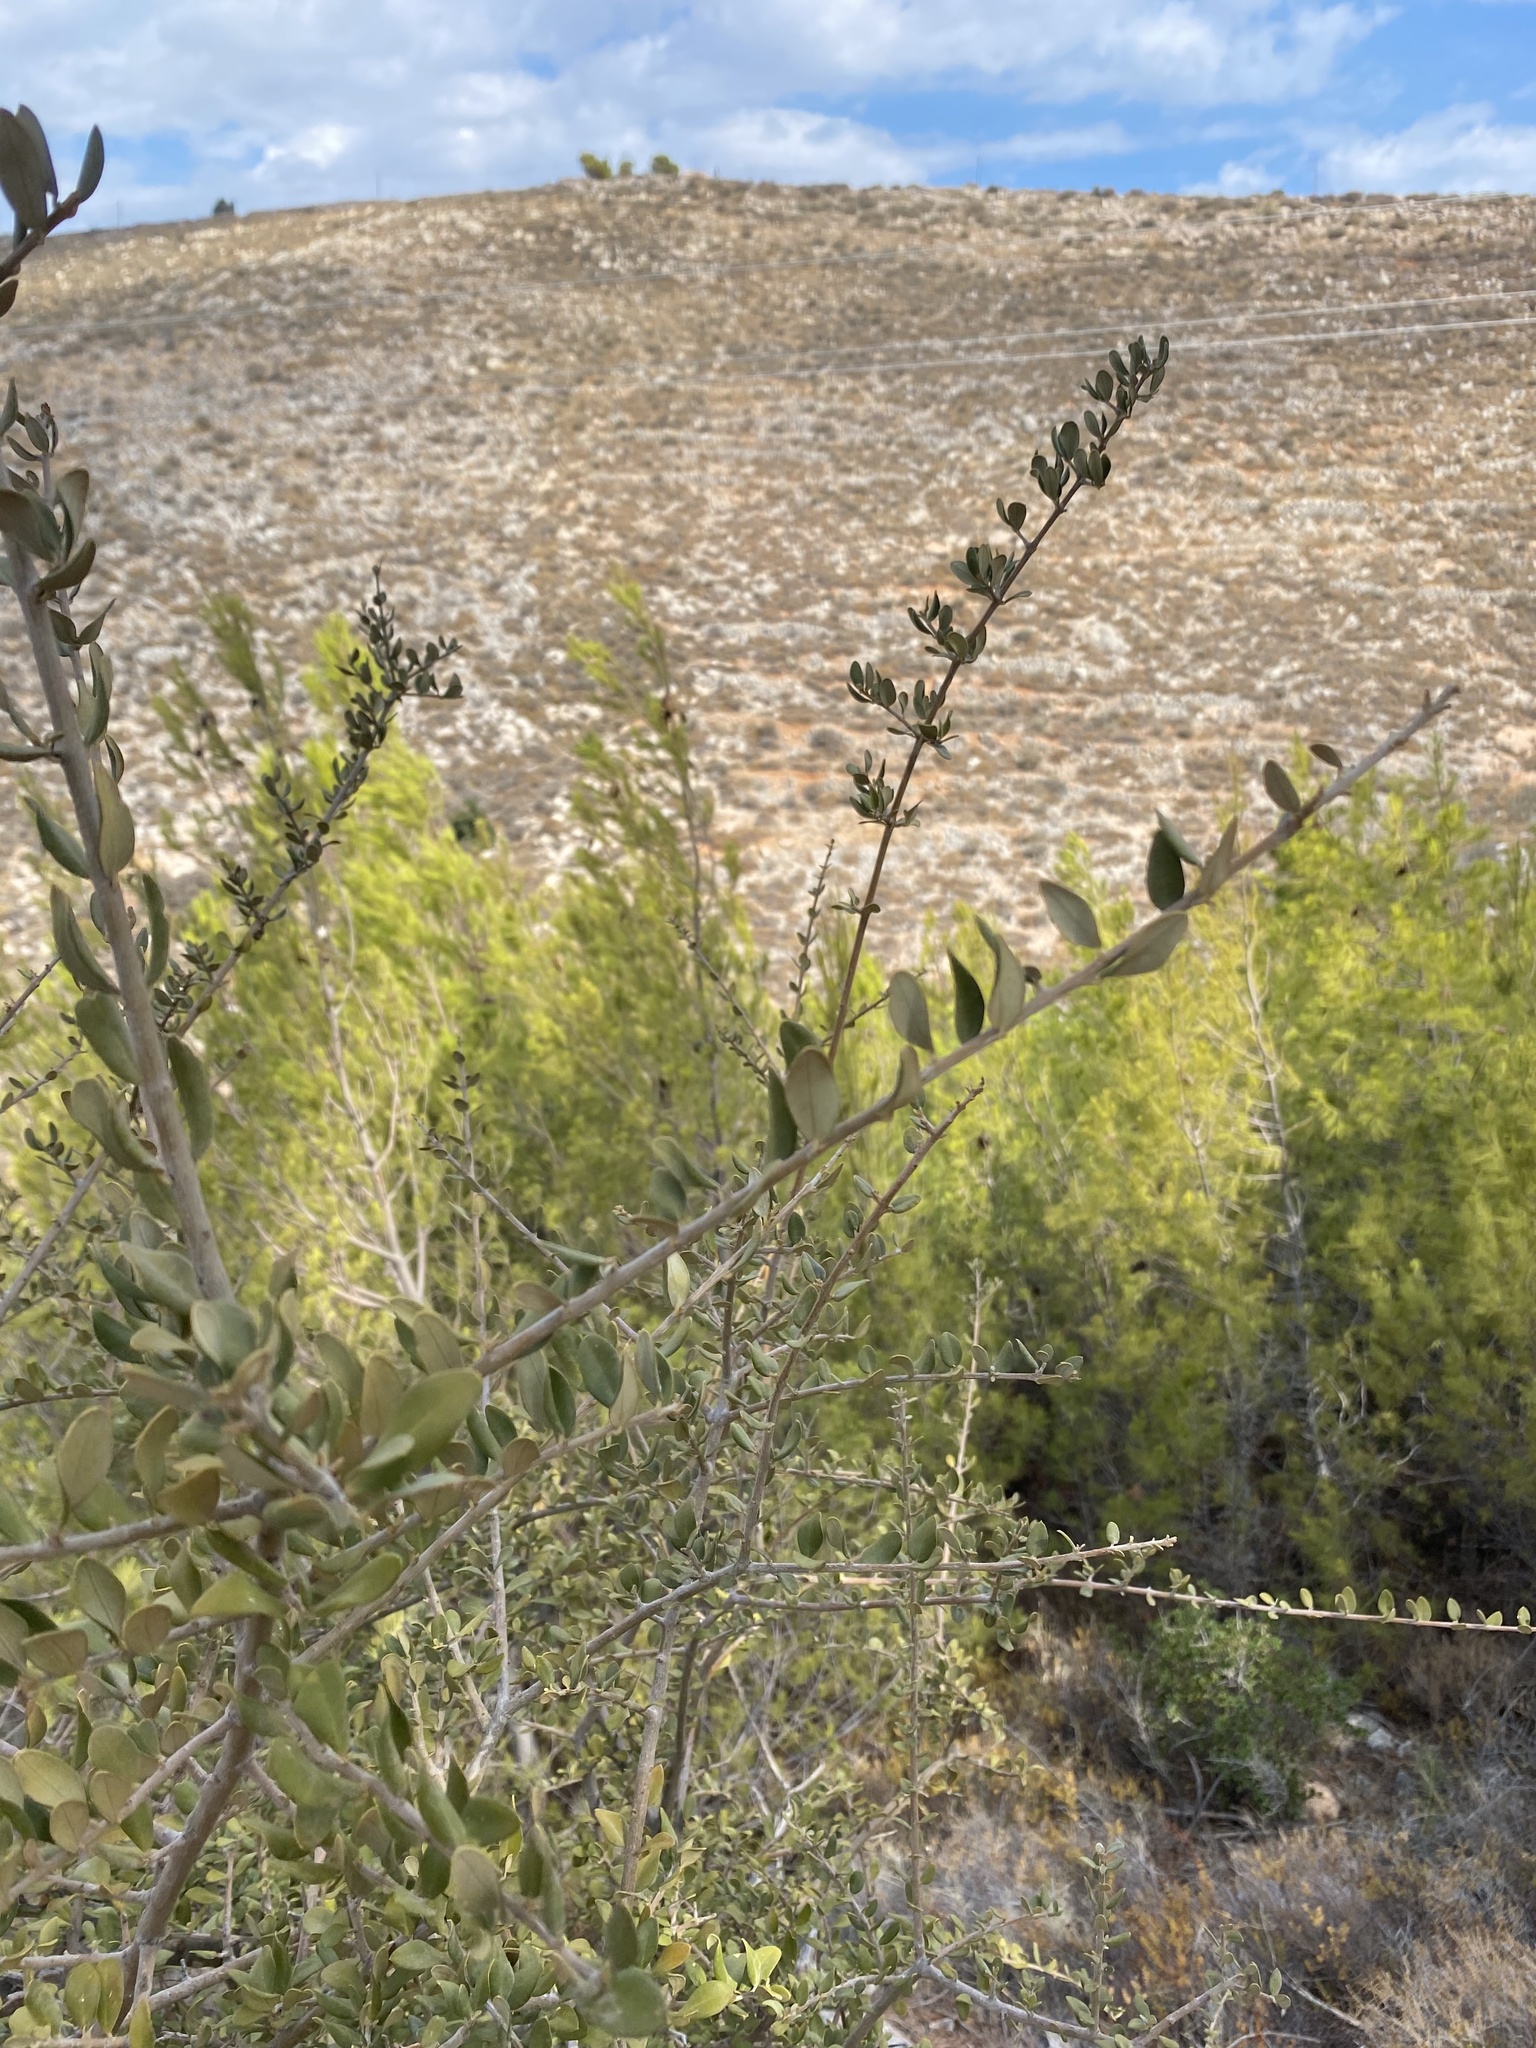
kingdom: Plantae
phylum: Tracheophyta
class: Magnoliopsida
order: Lamiales
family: Oleaceae
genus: Olea
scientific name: Olea europaea
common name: Olive
